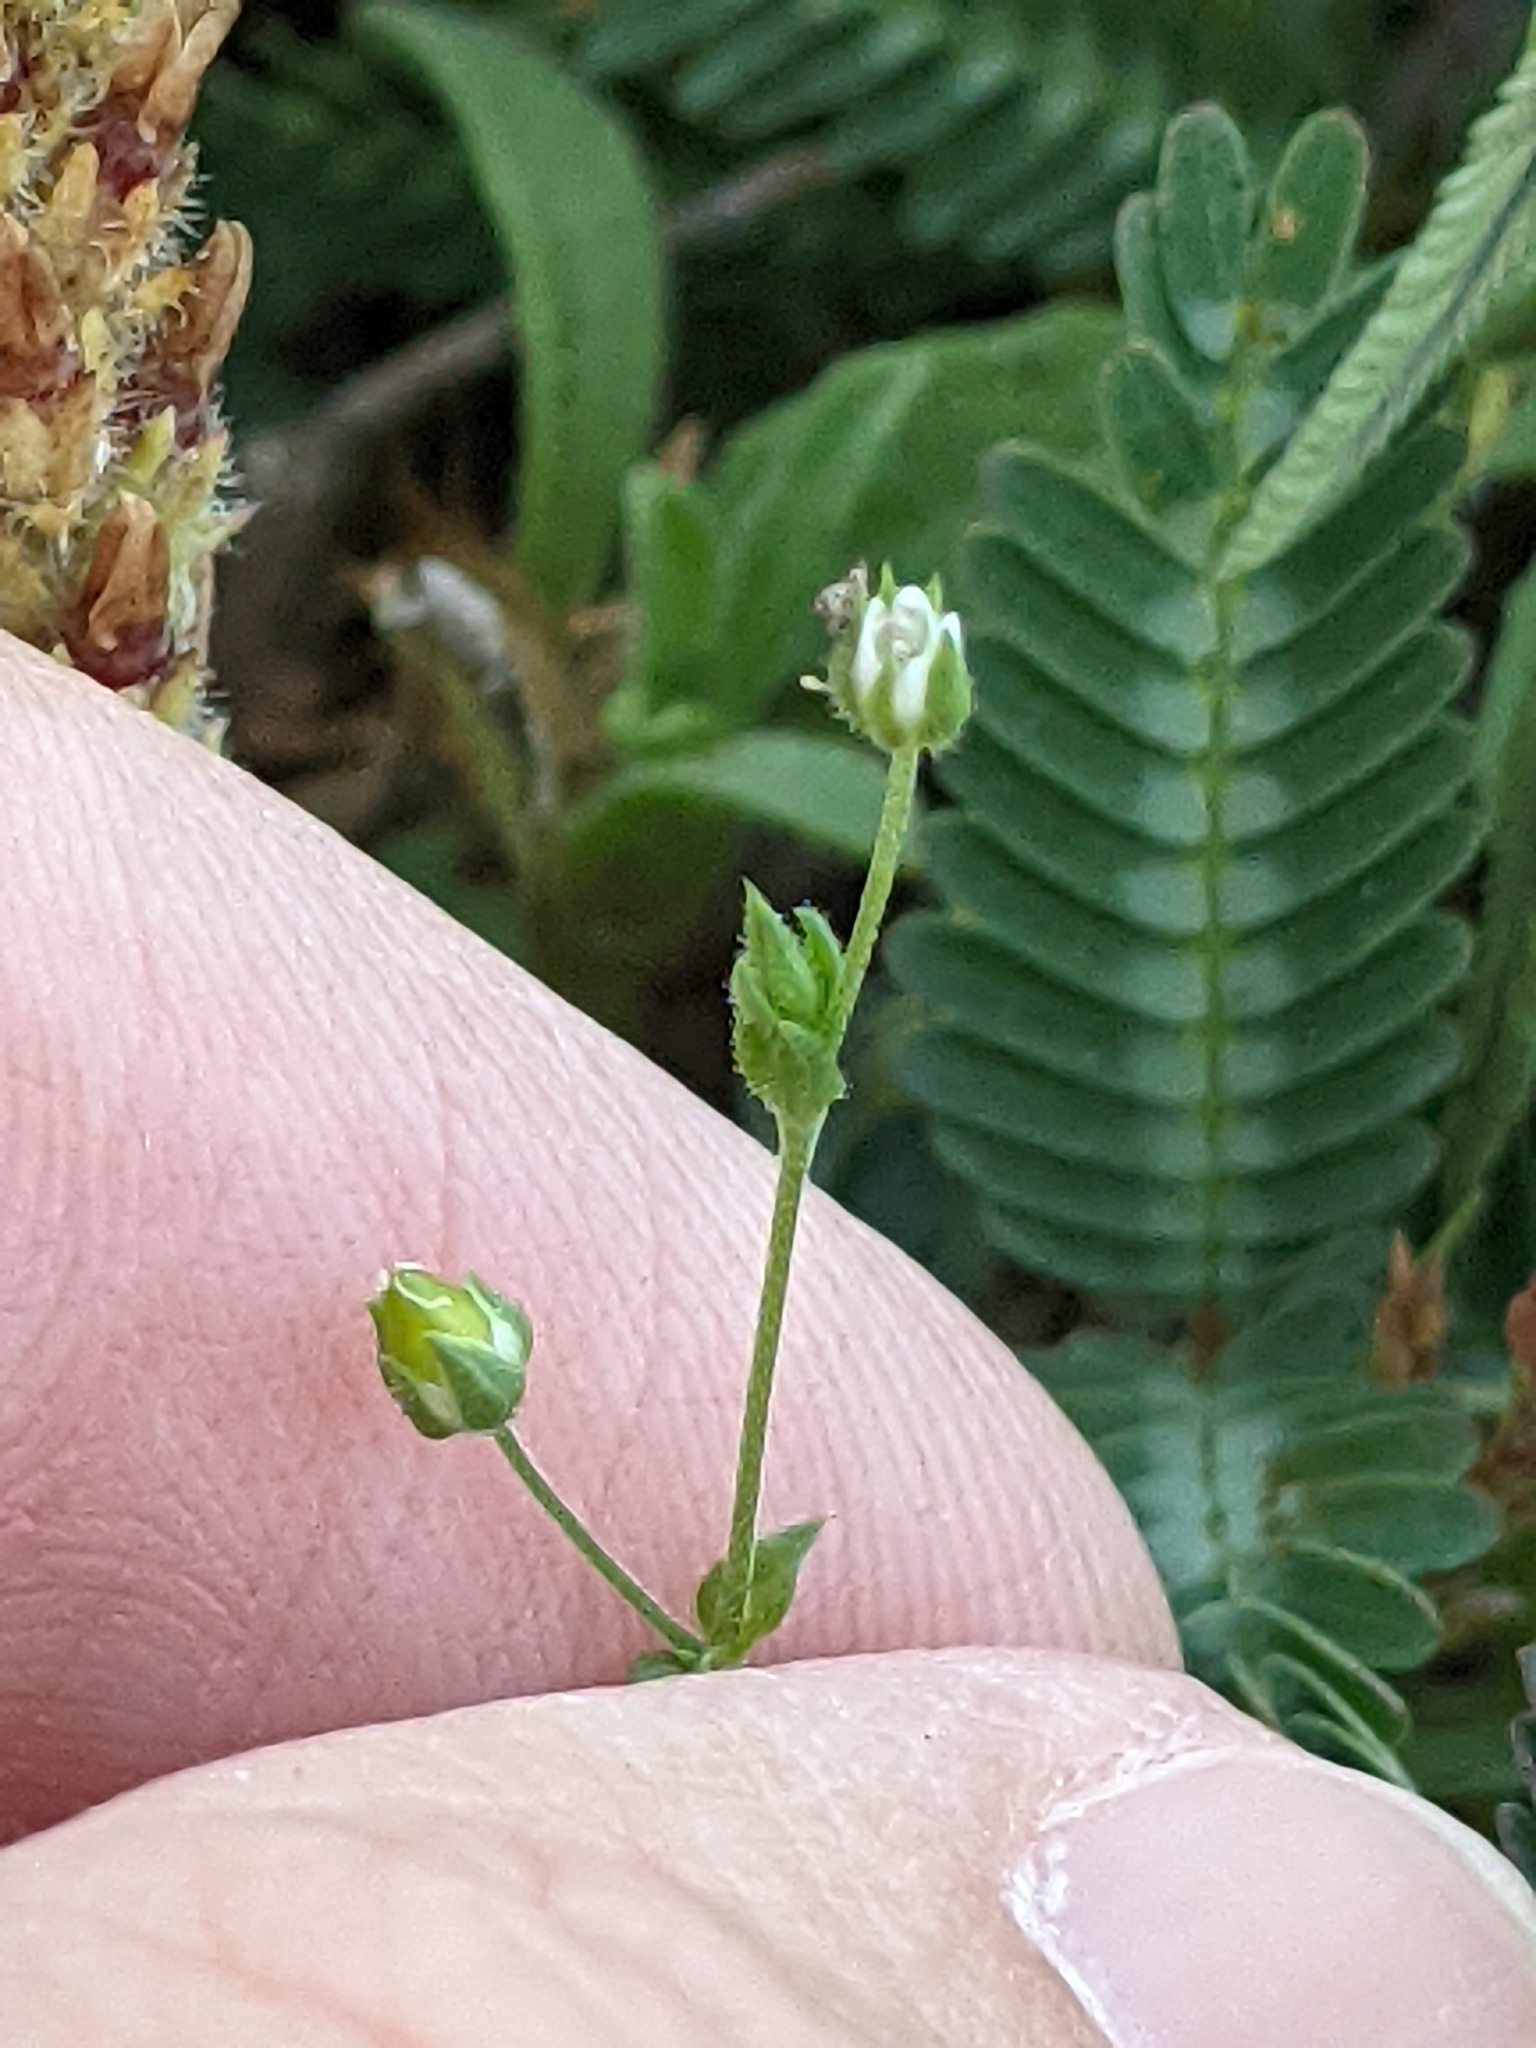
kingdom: Plantae
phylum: Tracheophyta
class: Magnoliopsida
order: Caryophyllales
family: Caryophyllaceae
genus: Arenaria
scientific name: Arenaria serpyllifolia
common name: Thyme-leaved sandwort
